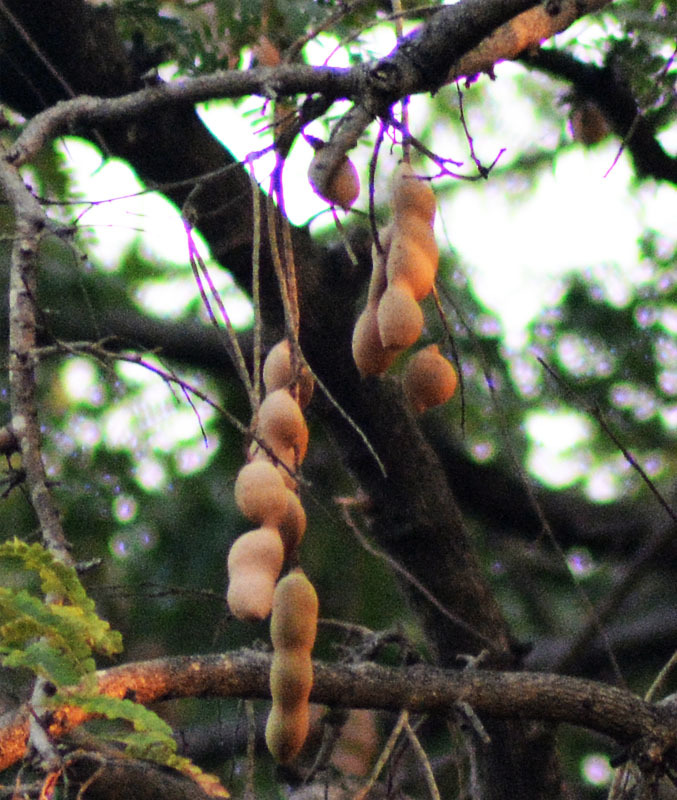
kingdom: Plantae
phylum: Tracheophyta
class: Magnoliopsida
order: Fabales
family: Fabaceae
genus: Tamarindus
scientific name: Tamarindus indica
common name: Tamarind
